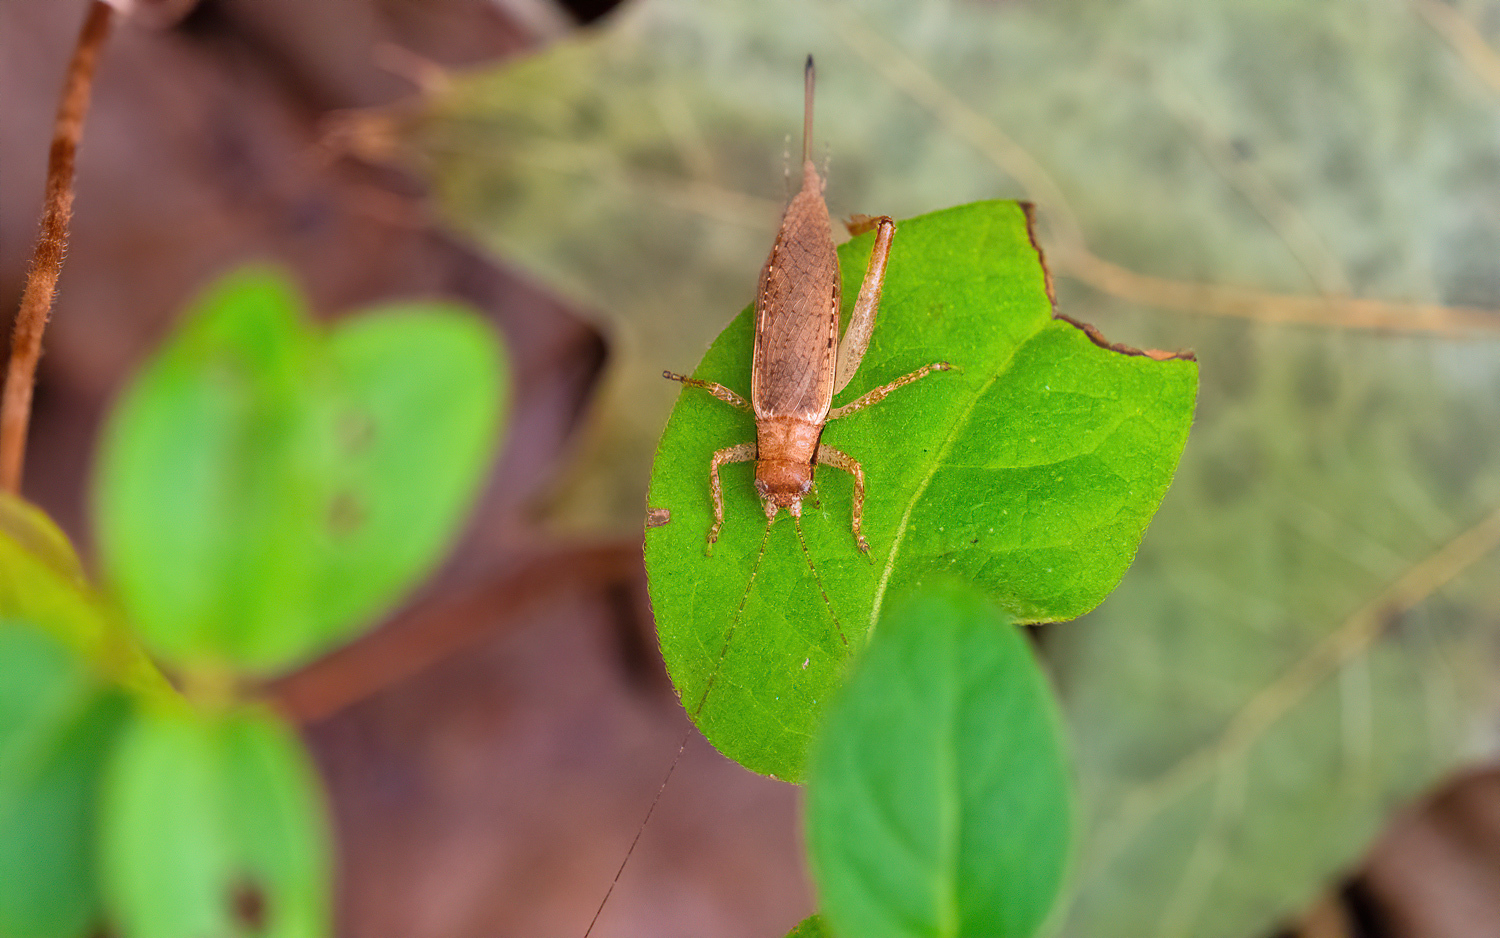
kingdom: Animalia
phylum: Arthropoda
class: Insecta
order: Orthoptera
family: Gryllidae
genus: Hapithus
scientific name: Hapithus saltator
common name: Jumping bush cricket
